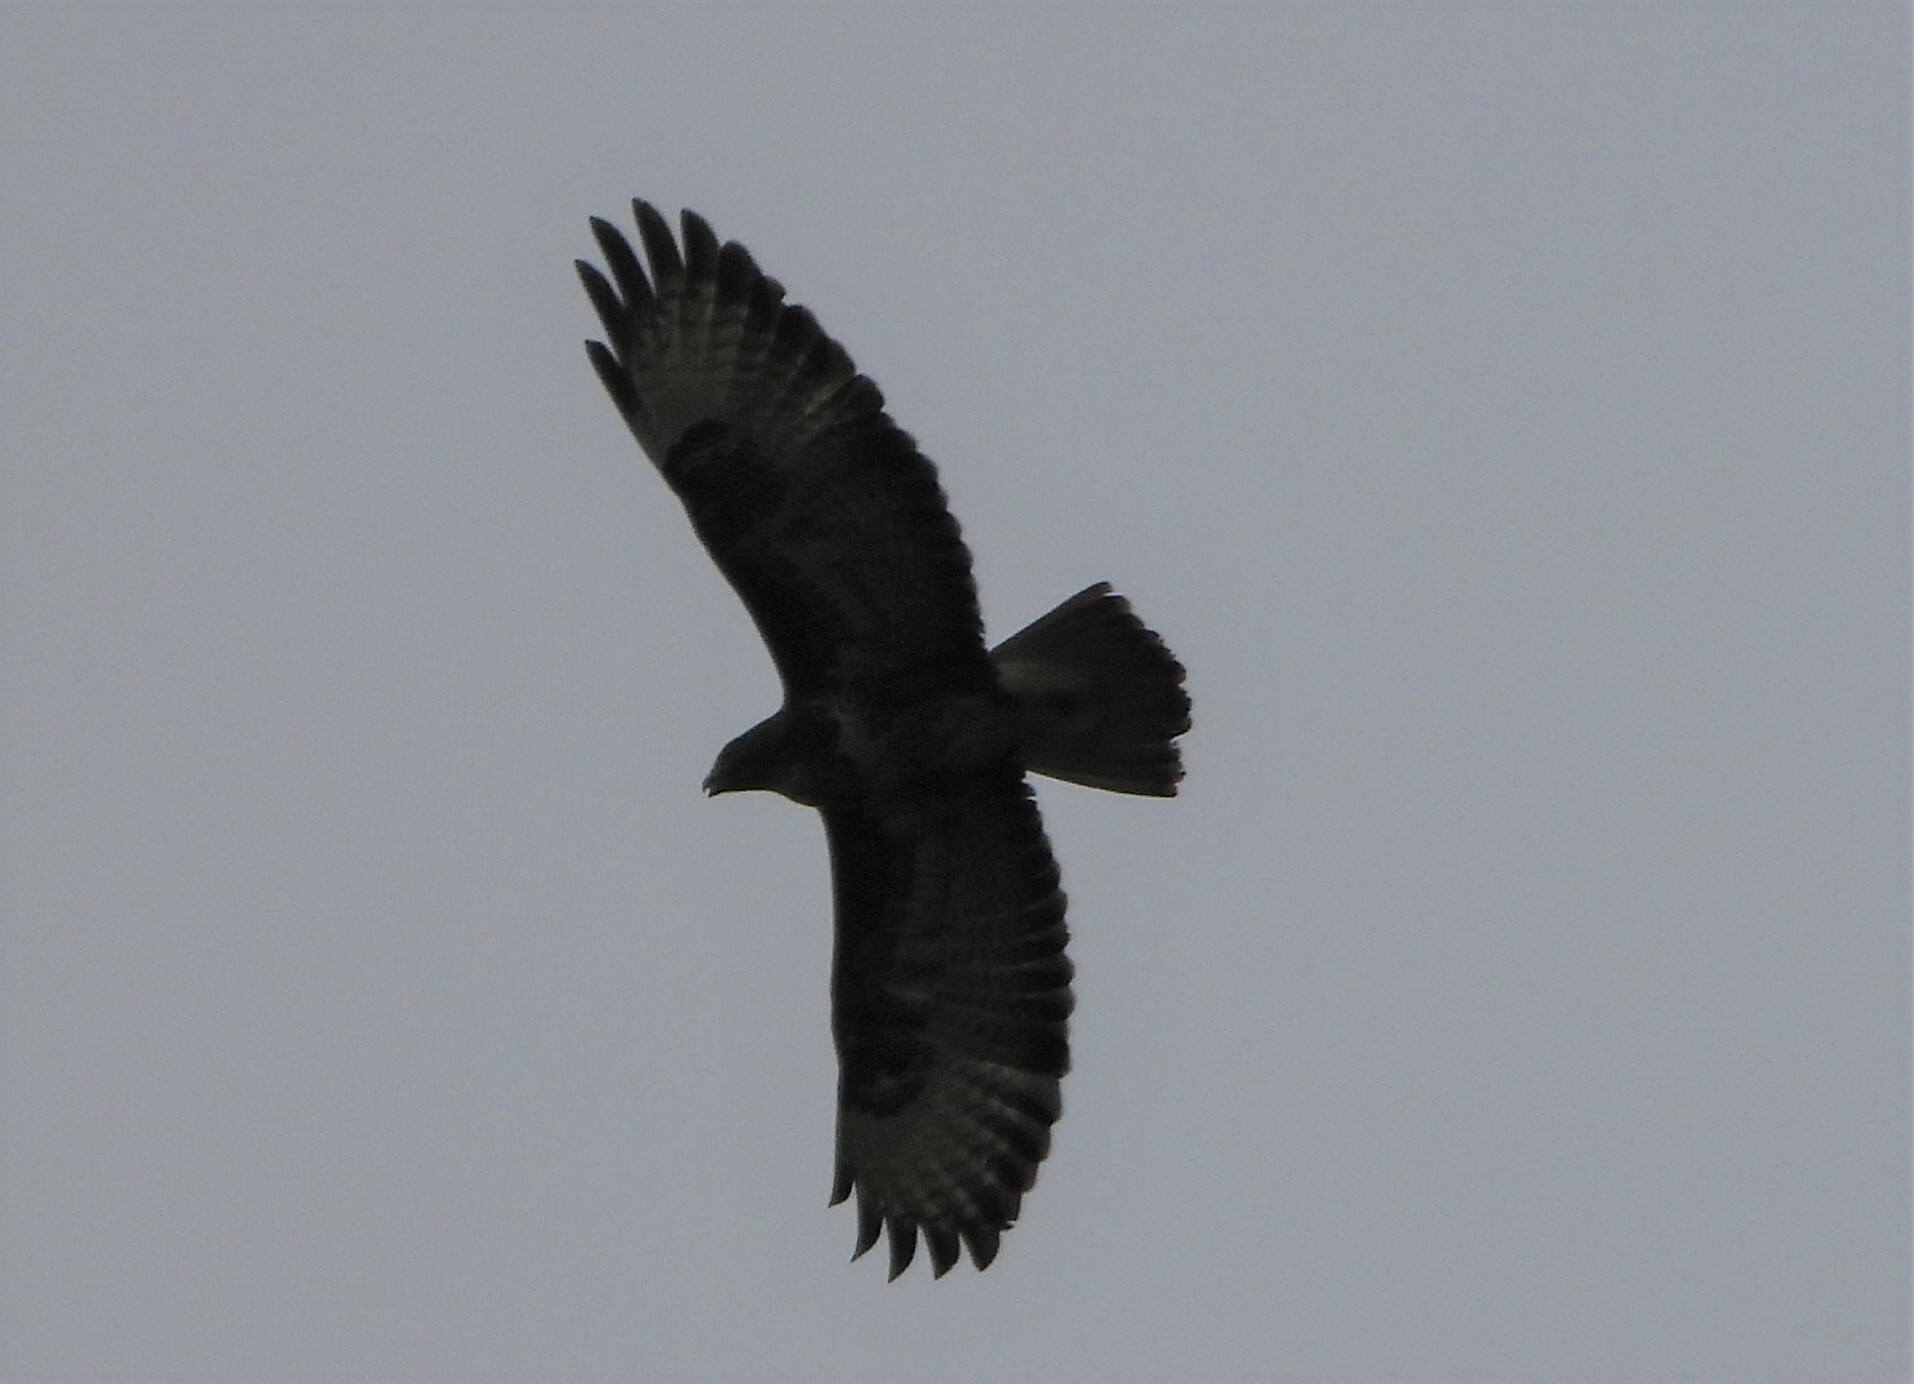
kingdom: Animalia
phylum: Chordata
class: Aves
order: Accipitriformes
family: Accipitridae
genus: Buteo
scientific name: Buteo buteo
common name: Common buzzard
